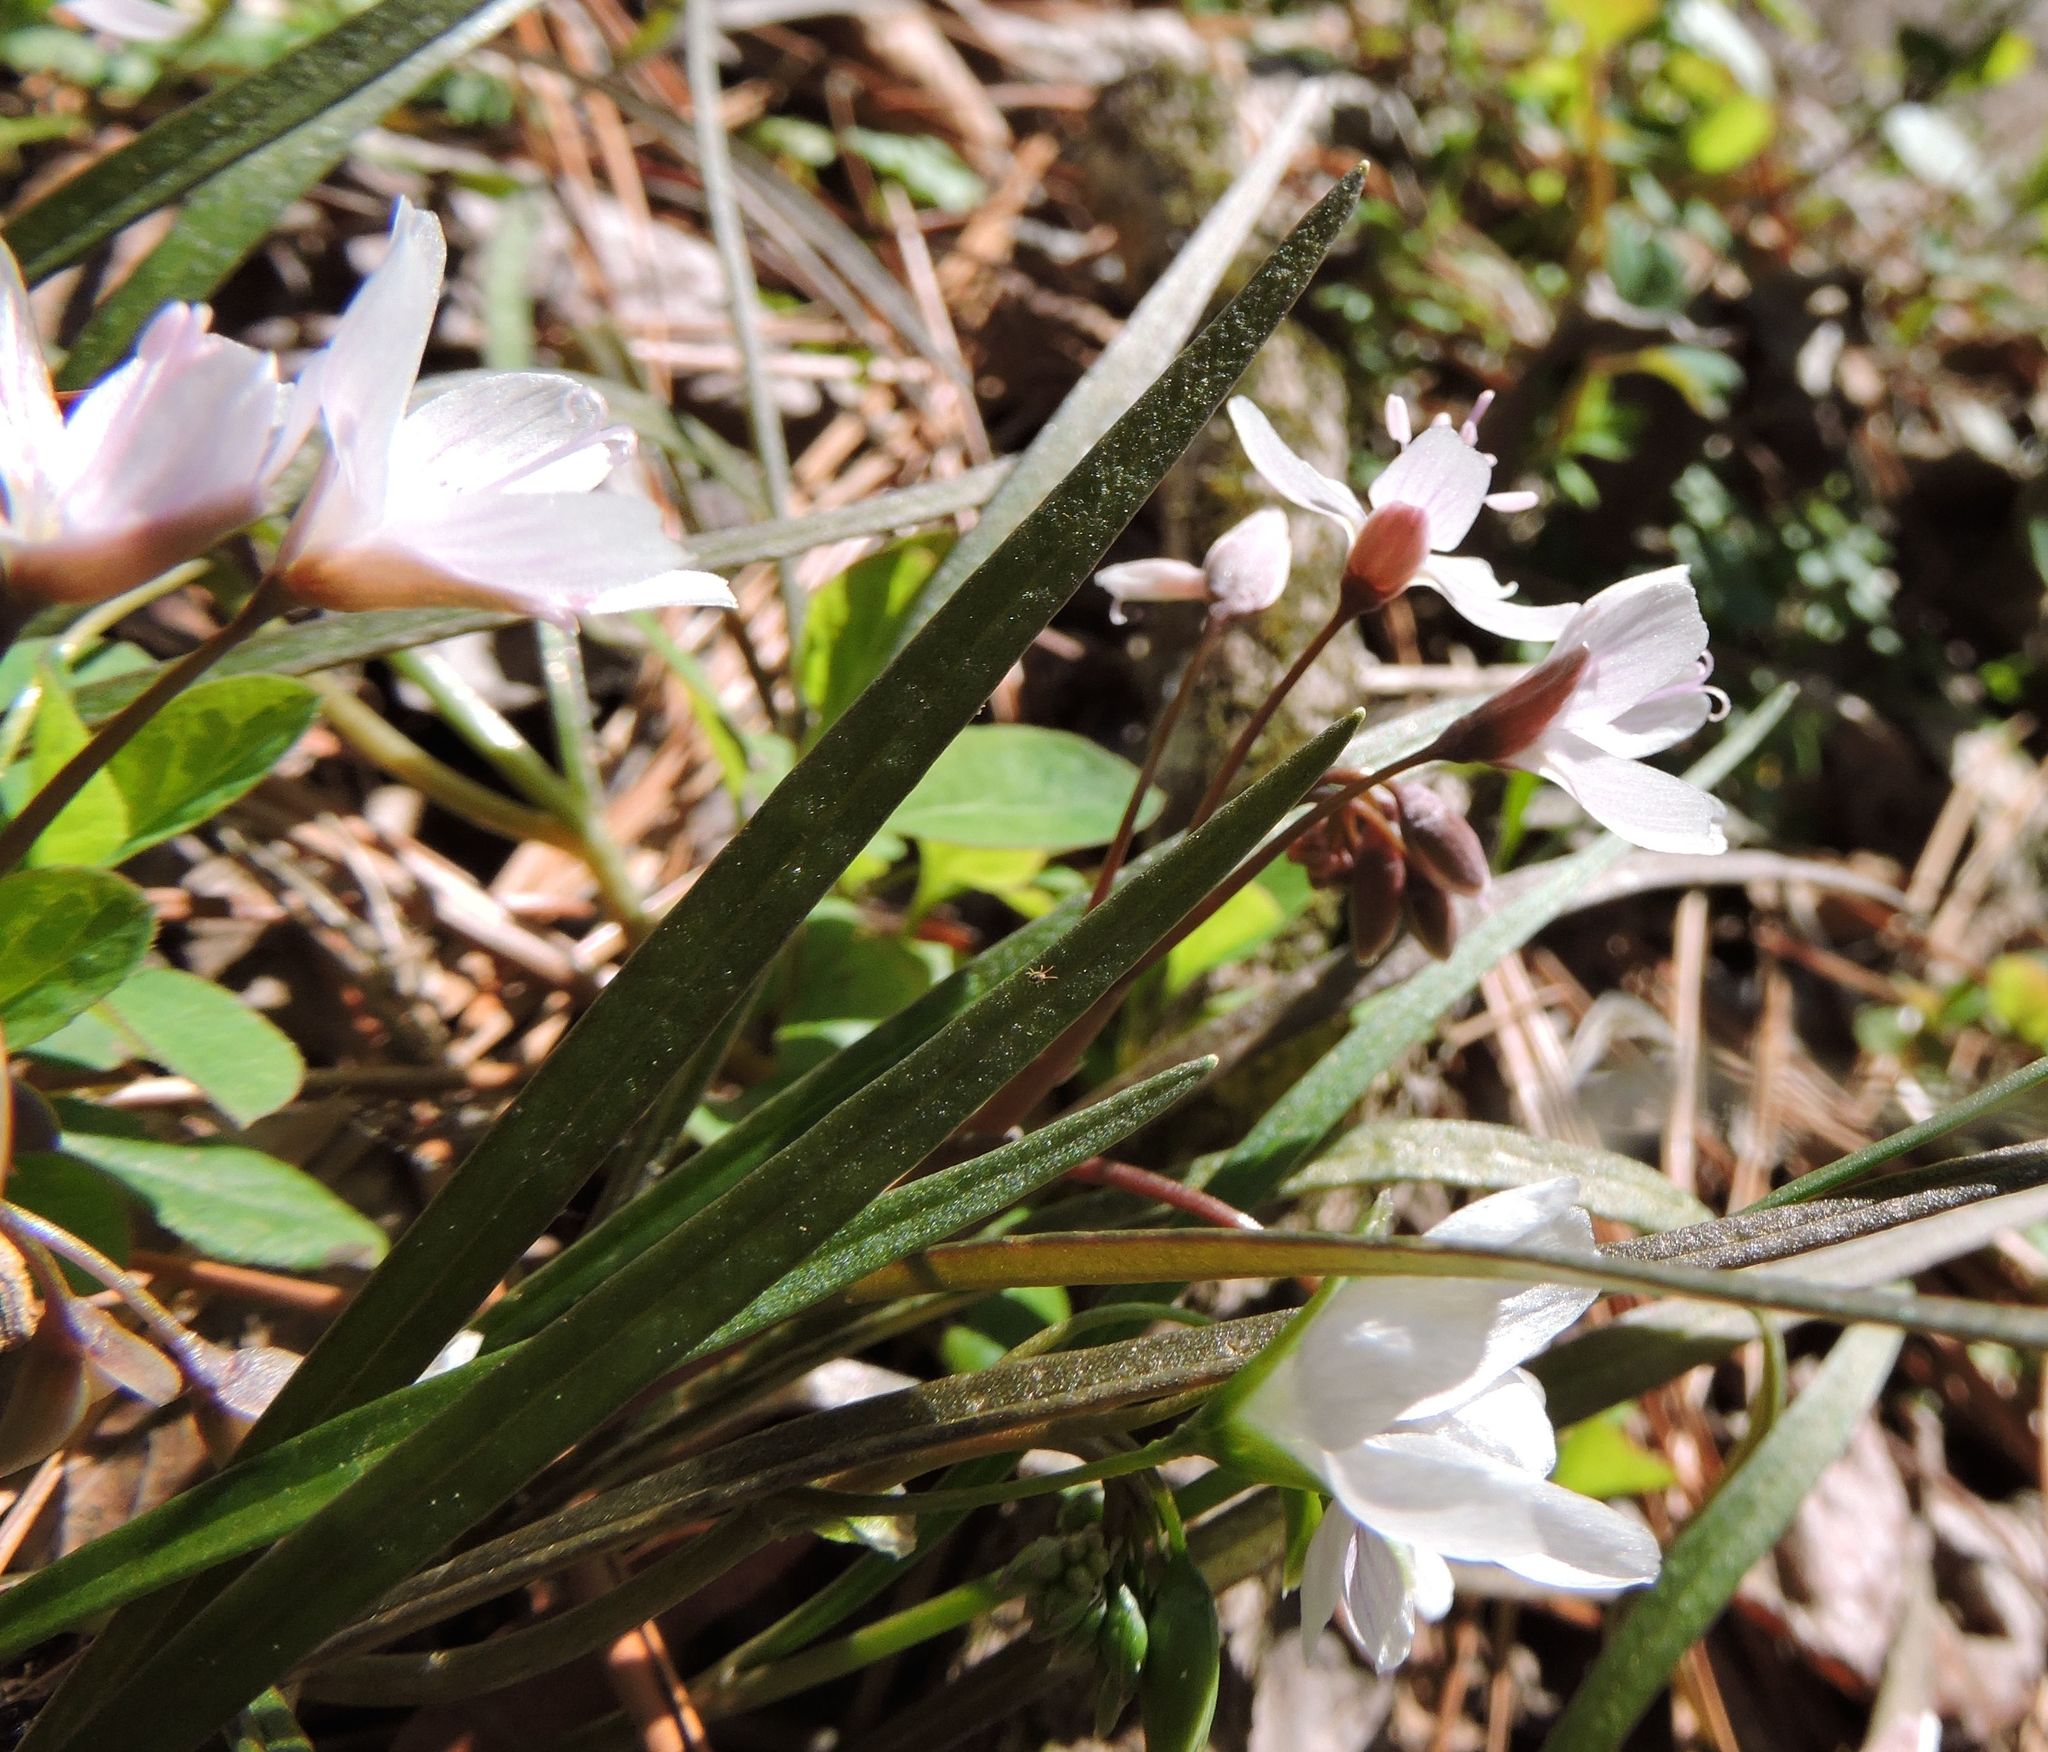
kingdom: Plantae
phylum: Tracheophyta
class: Magnoliopsida
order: Caryophyllales
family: Montiaceae
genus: Claytonia
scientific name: Claytonia virginica
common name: Virginia springbeauty
